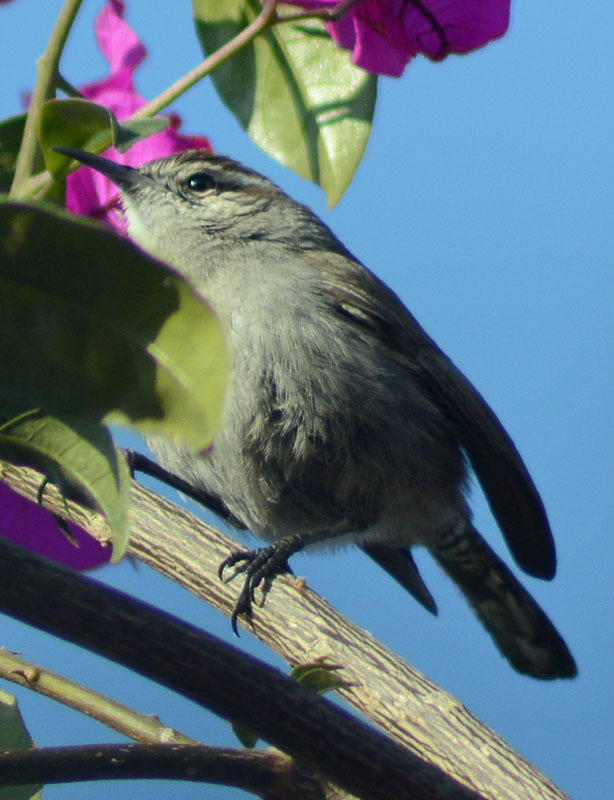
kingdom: Animalia
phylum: Chordata
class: Aves
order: Passeriformes
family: Troglodytidae
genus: Thryomanes
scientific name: Thryomanes bewickii
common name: Bewick's wren
